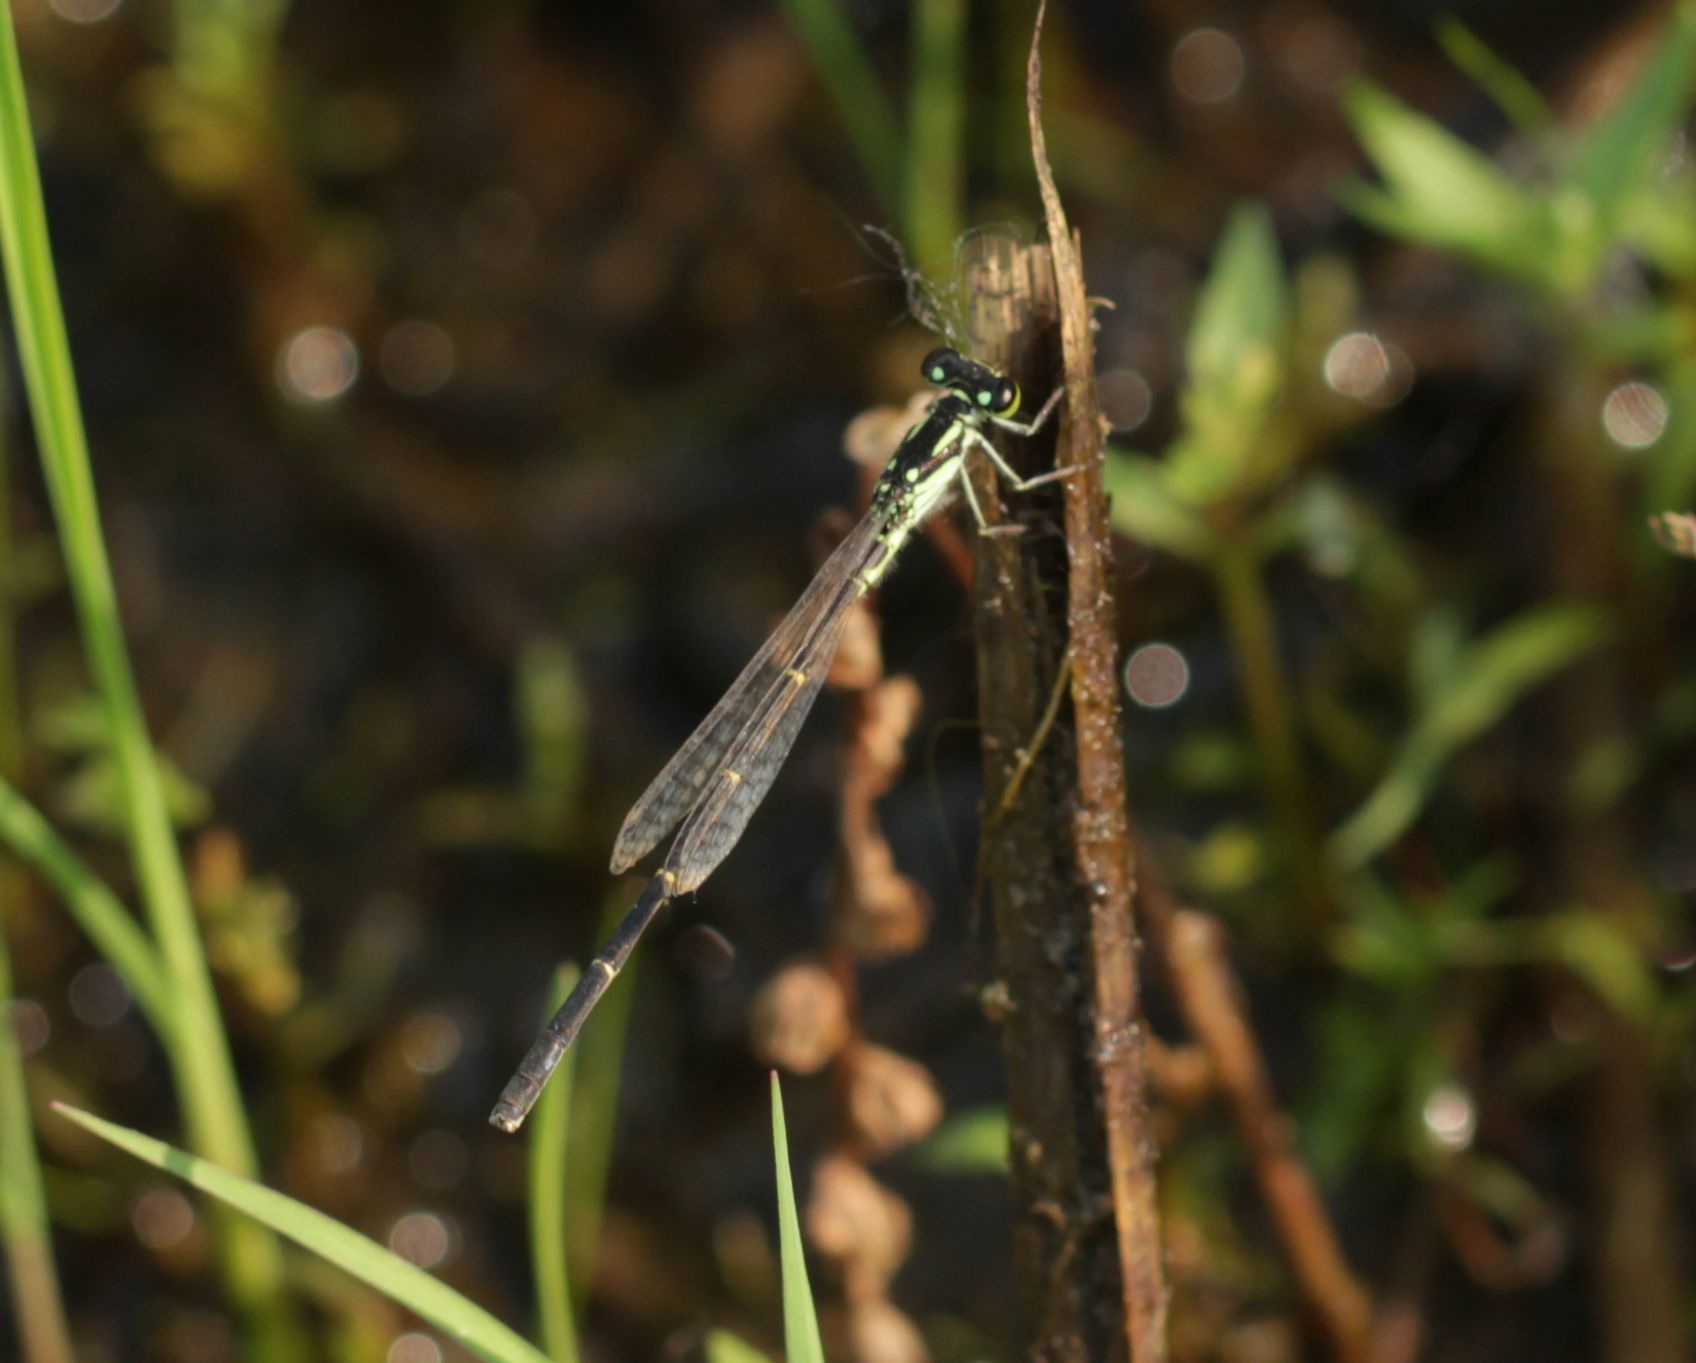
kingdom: Animalia
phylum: Arthropoda
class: Insecta
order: Odonata
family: Coenagrionidae
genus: Ischnura
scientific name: Ischnura posita
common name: Fragile forktail
